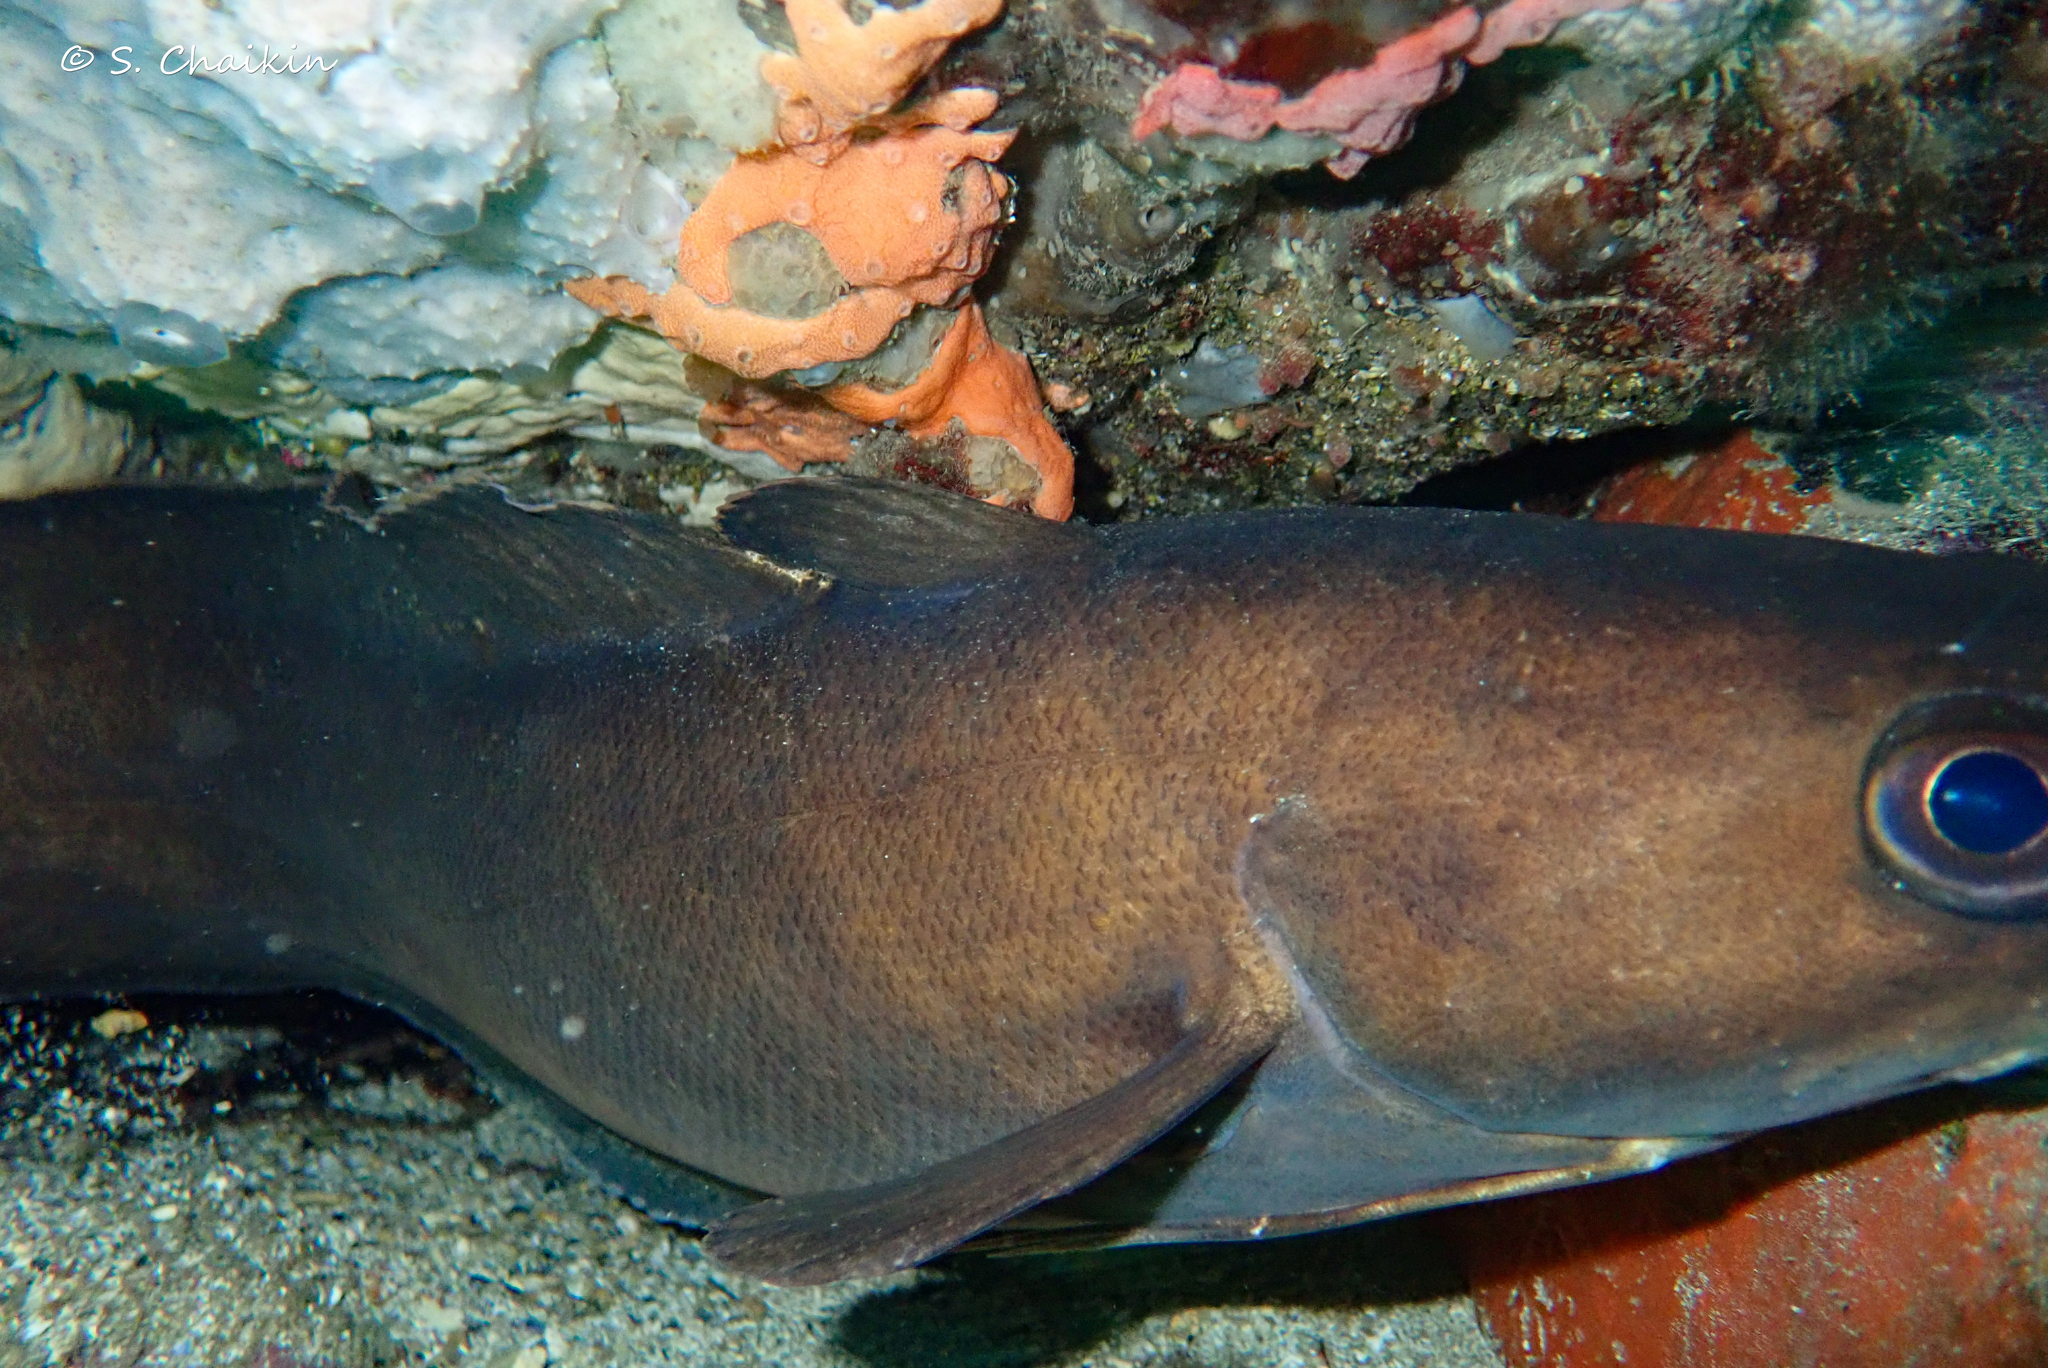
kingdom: Animalia
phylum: Chordata
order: Gadiformes
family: Phycidae
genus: Phycis
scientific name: Phycis phycis
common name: Forkbeard
